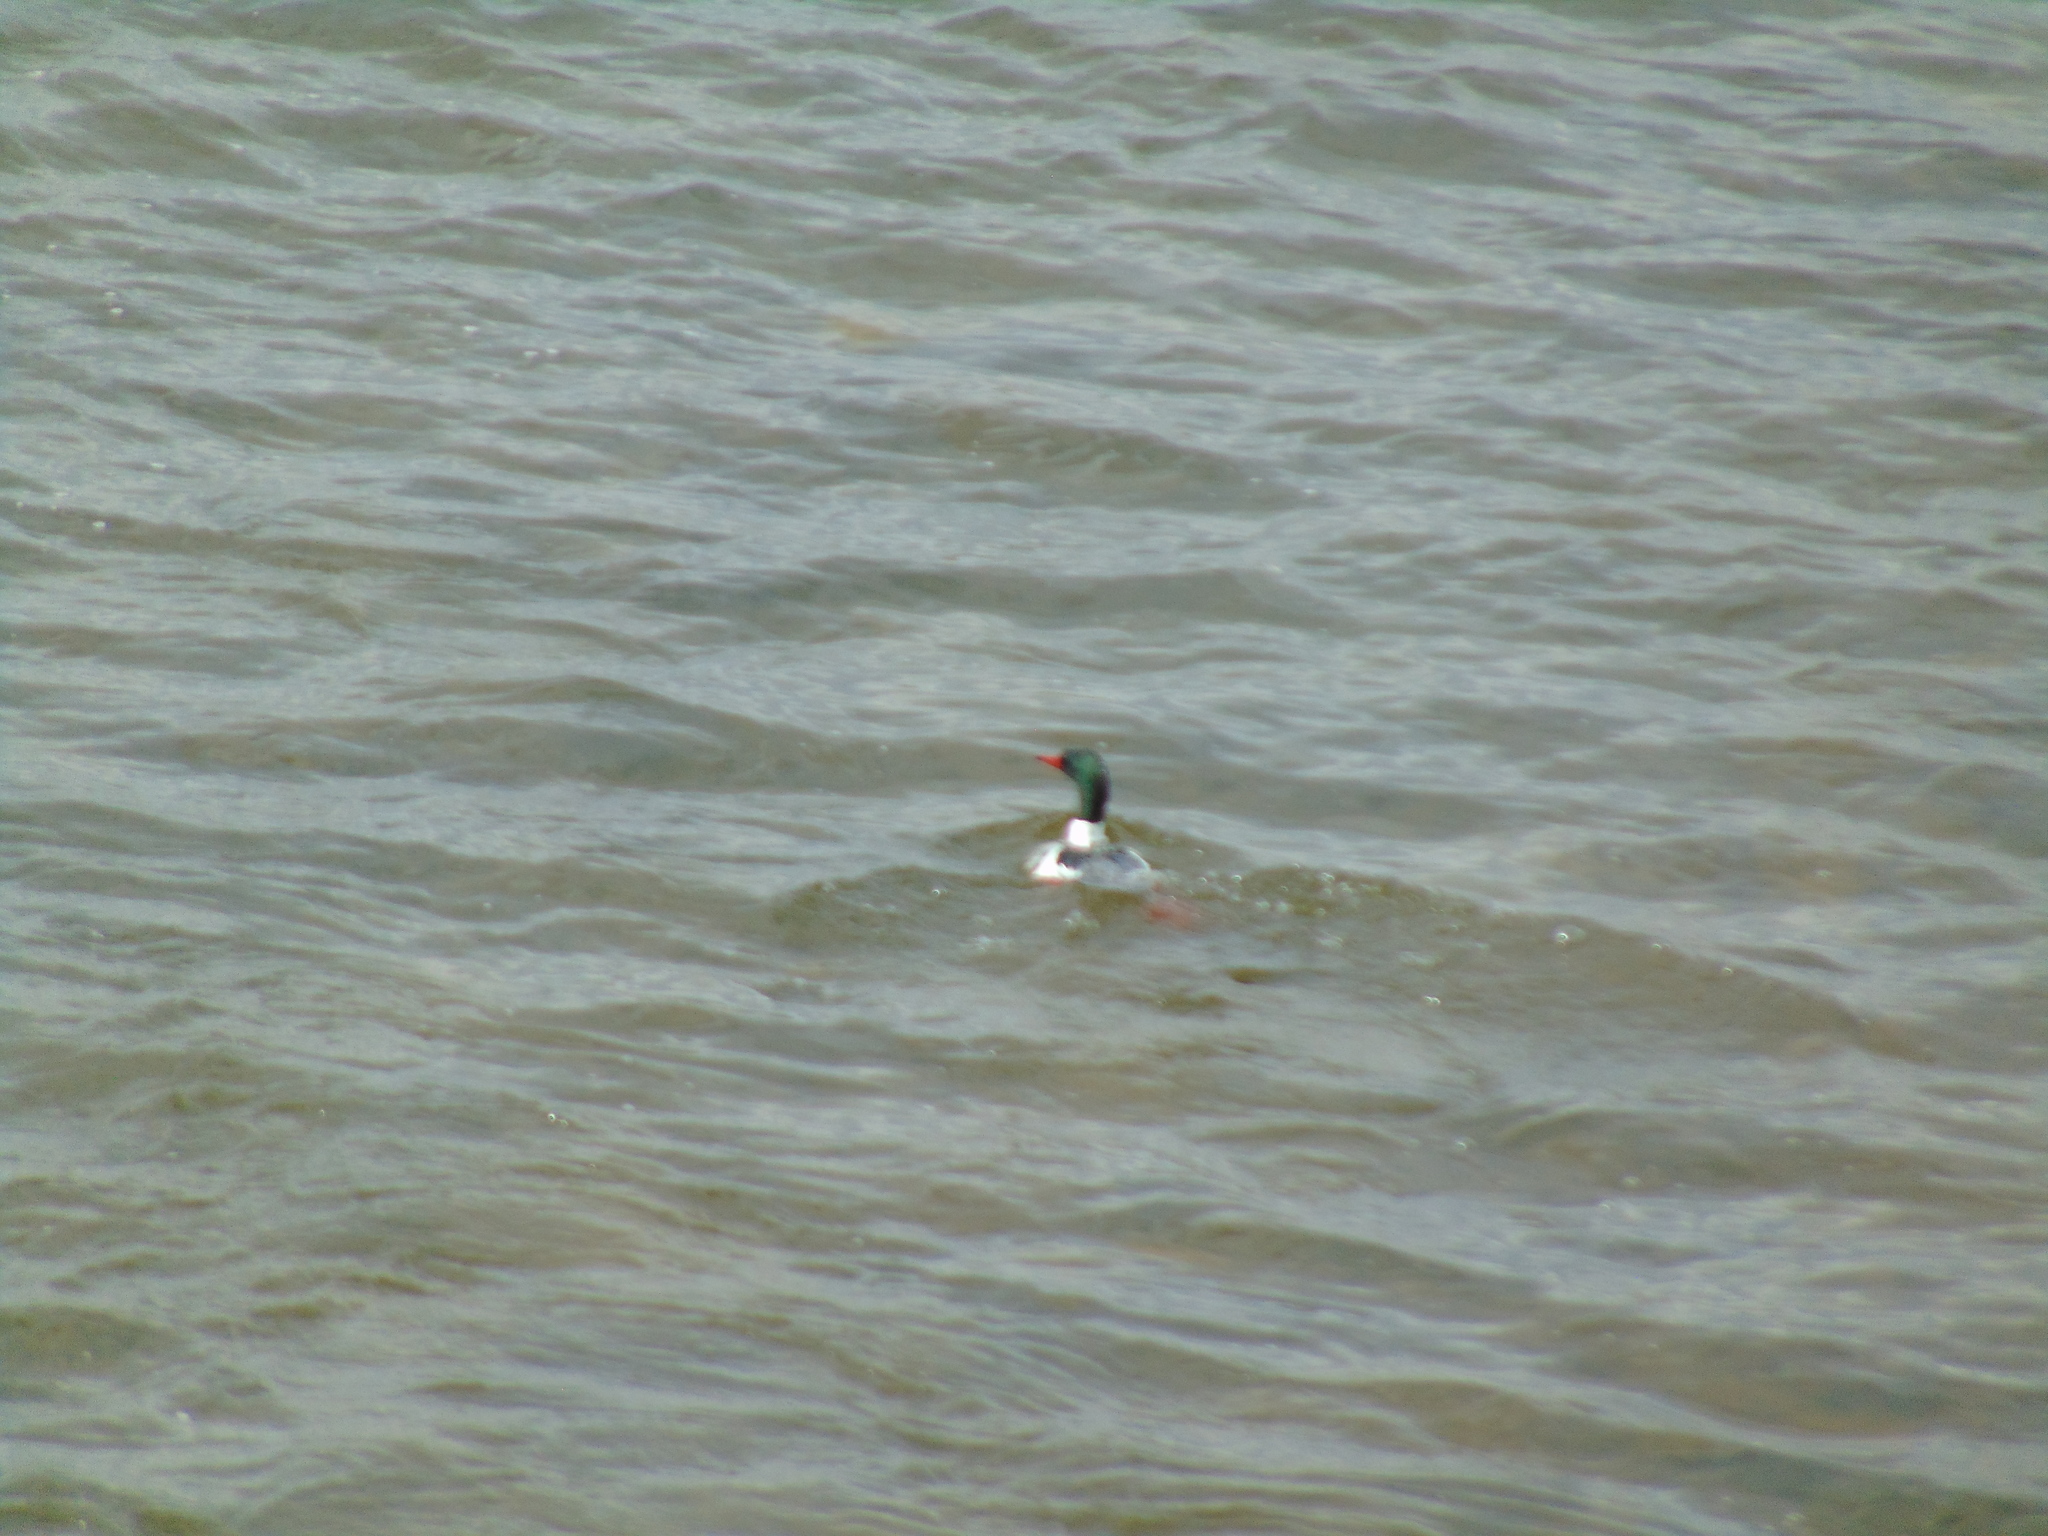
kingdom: Animalia
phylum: Chordata
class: Aves
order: Anseriformes
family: Anatidae
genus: Mergus
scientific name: Mergus merganser
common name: Common merganser
